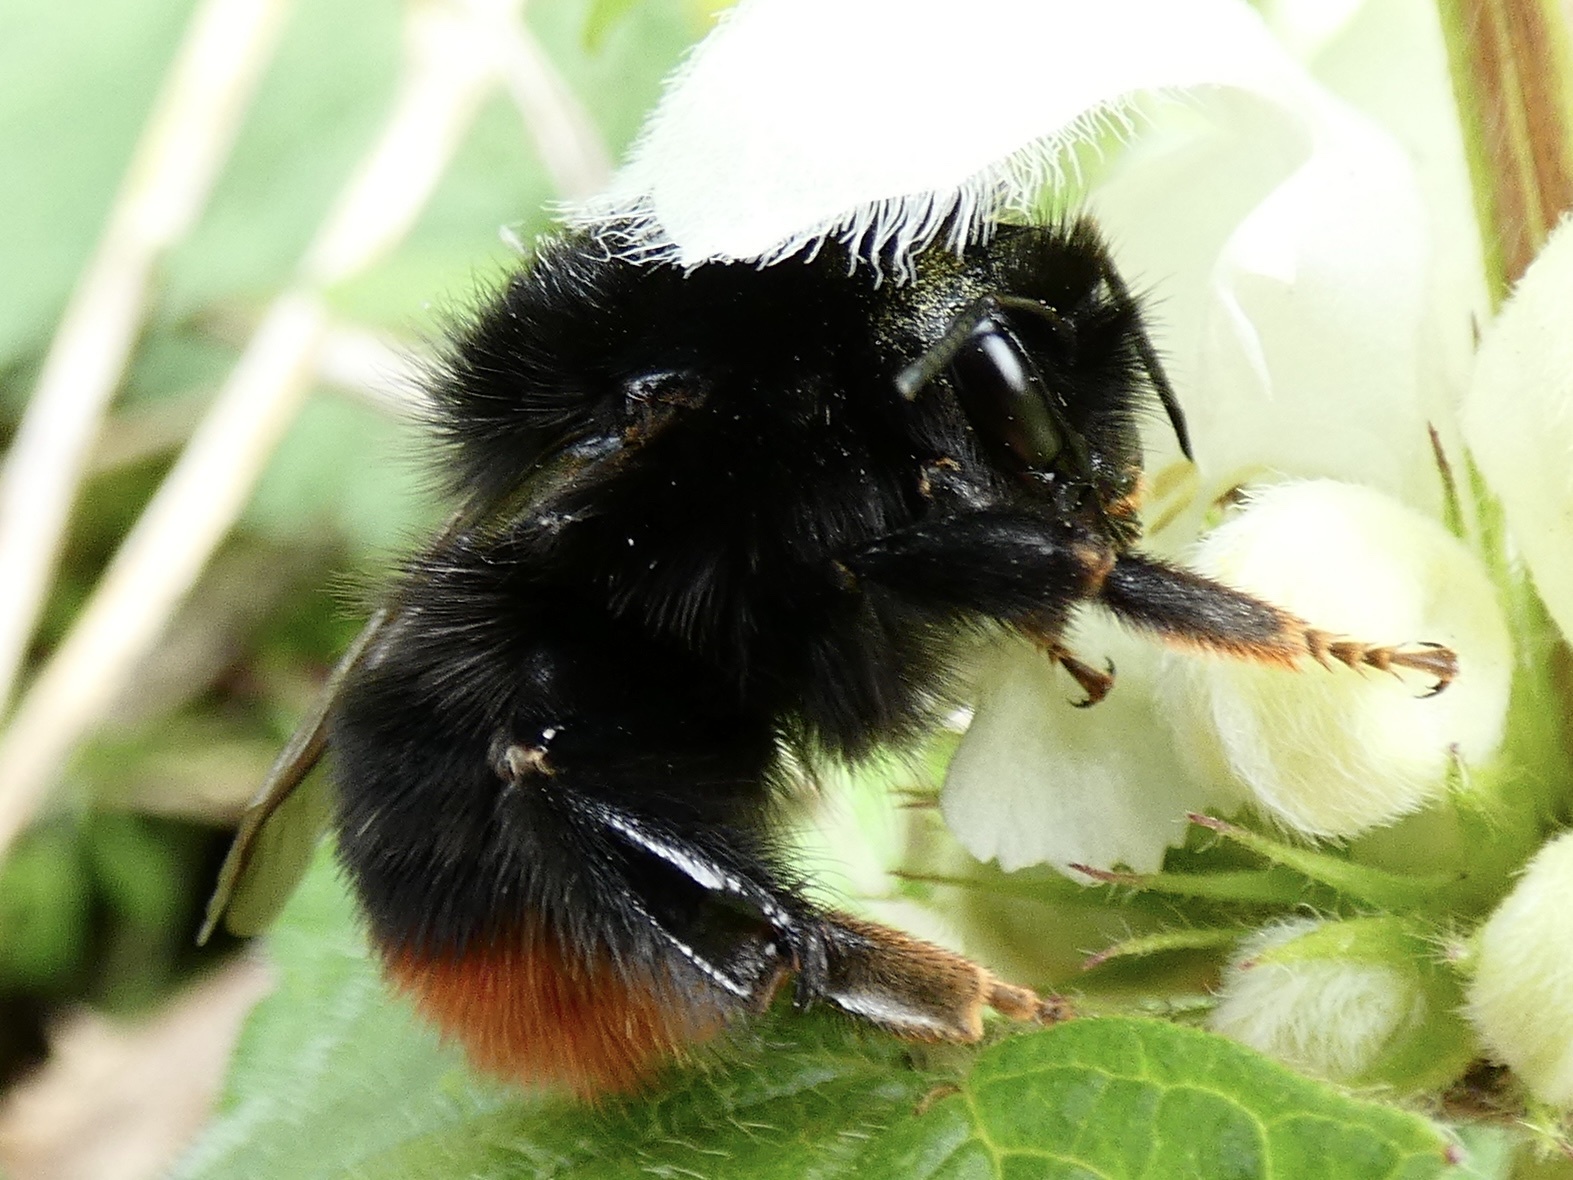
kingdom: Animalia
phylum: Arthropoda
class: Insecta
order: Hymenoptera
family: Apidae
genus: Bombus
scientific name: Bombus lapidarius
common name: Large red-tailed humble-bee
